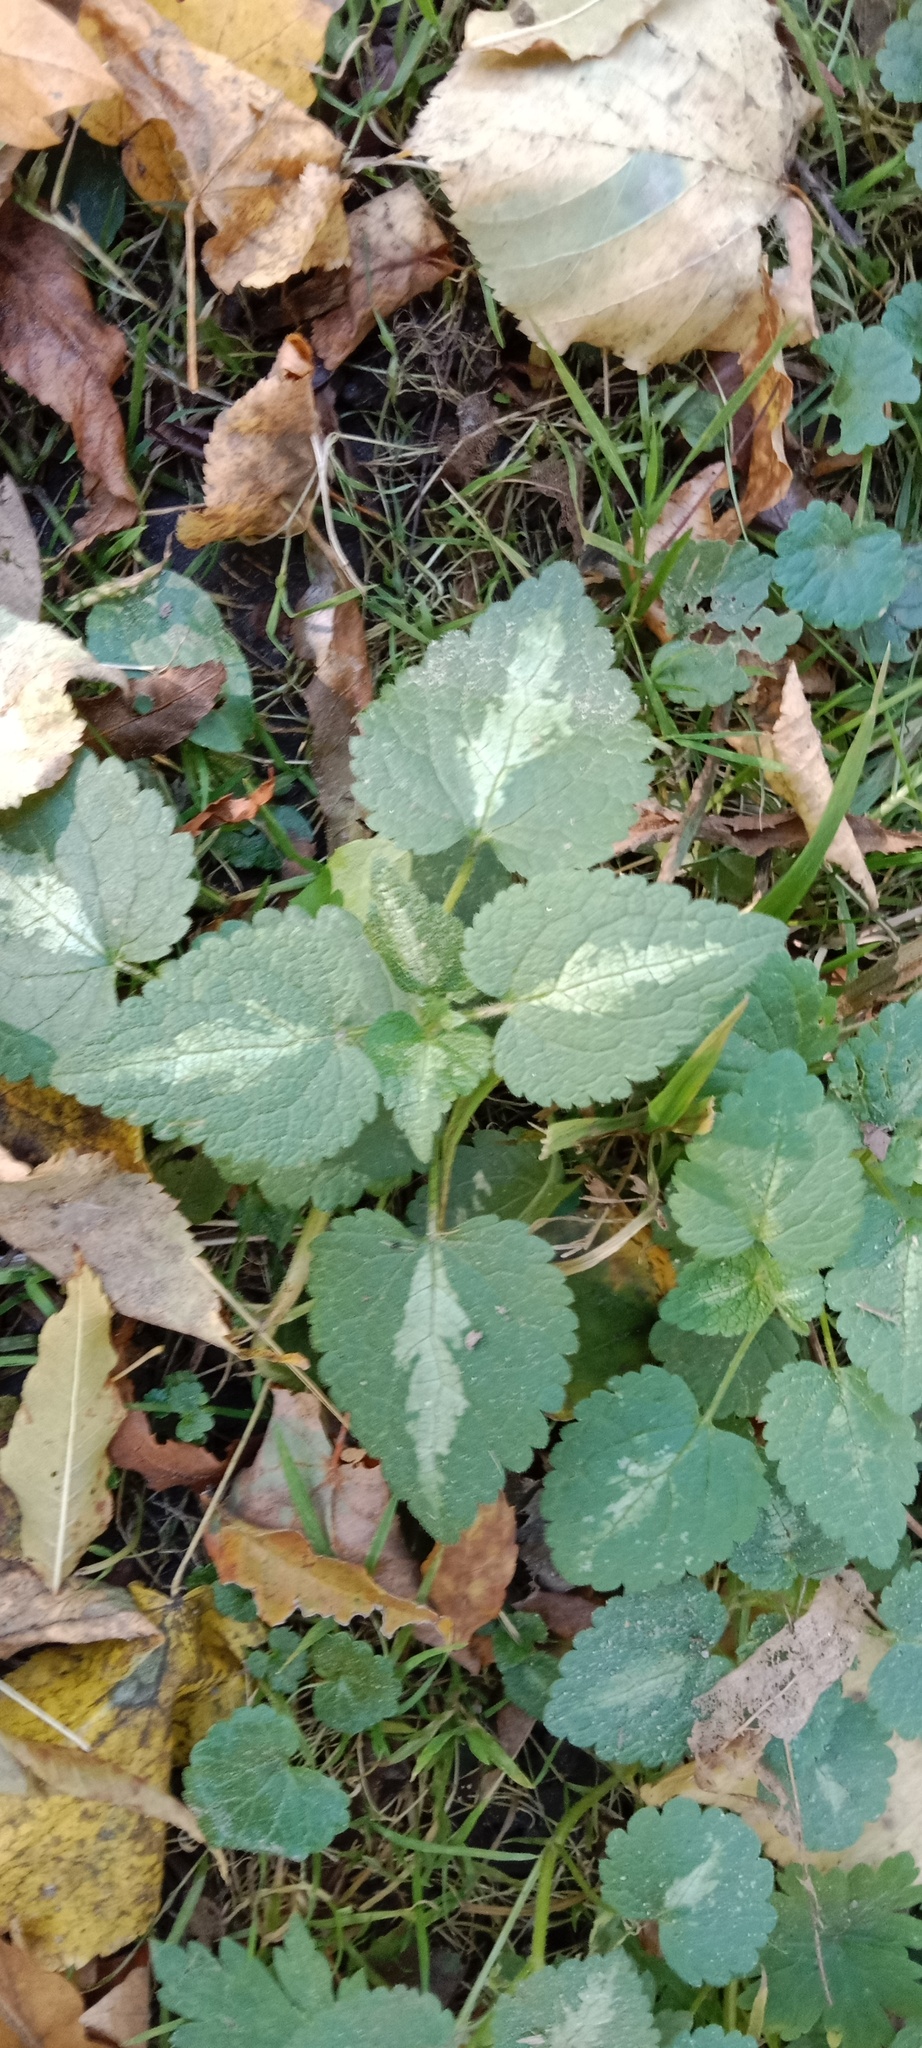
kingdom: Plantae
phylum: Tracheophyta
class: Magnoliopsida
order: Lamiales
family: Lamiaceae
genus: Lamium
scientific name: Lamium maculatum
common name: Spotted dead-nettle
